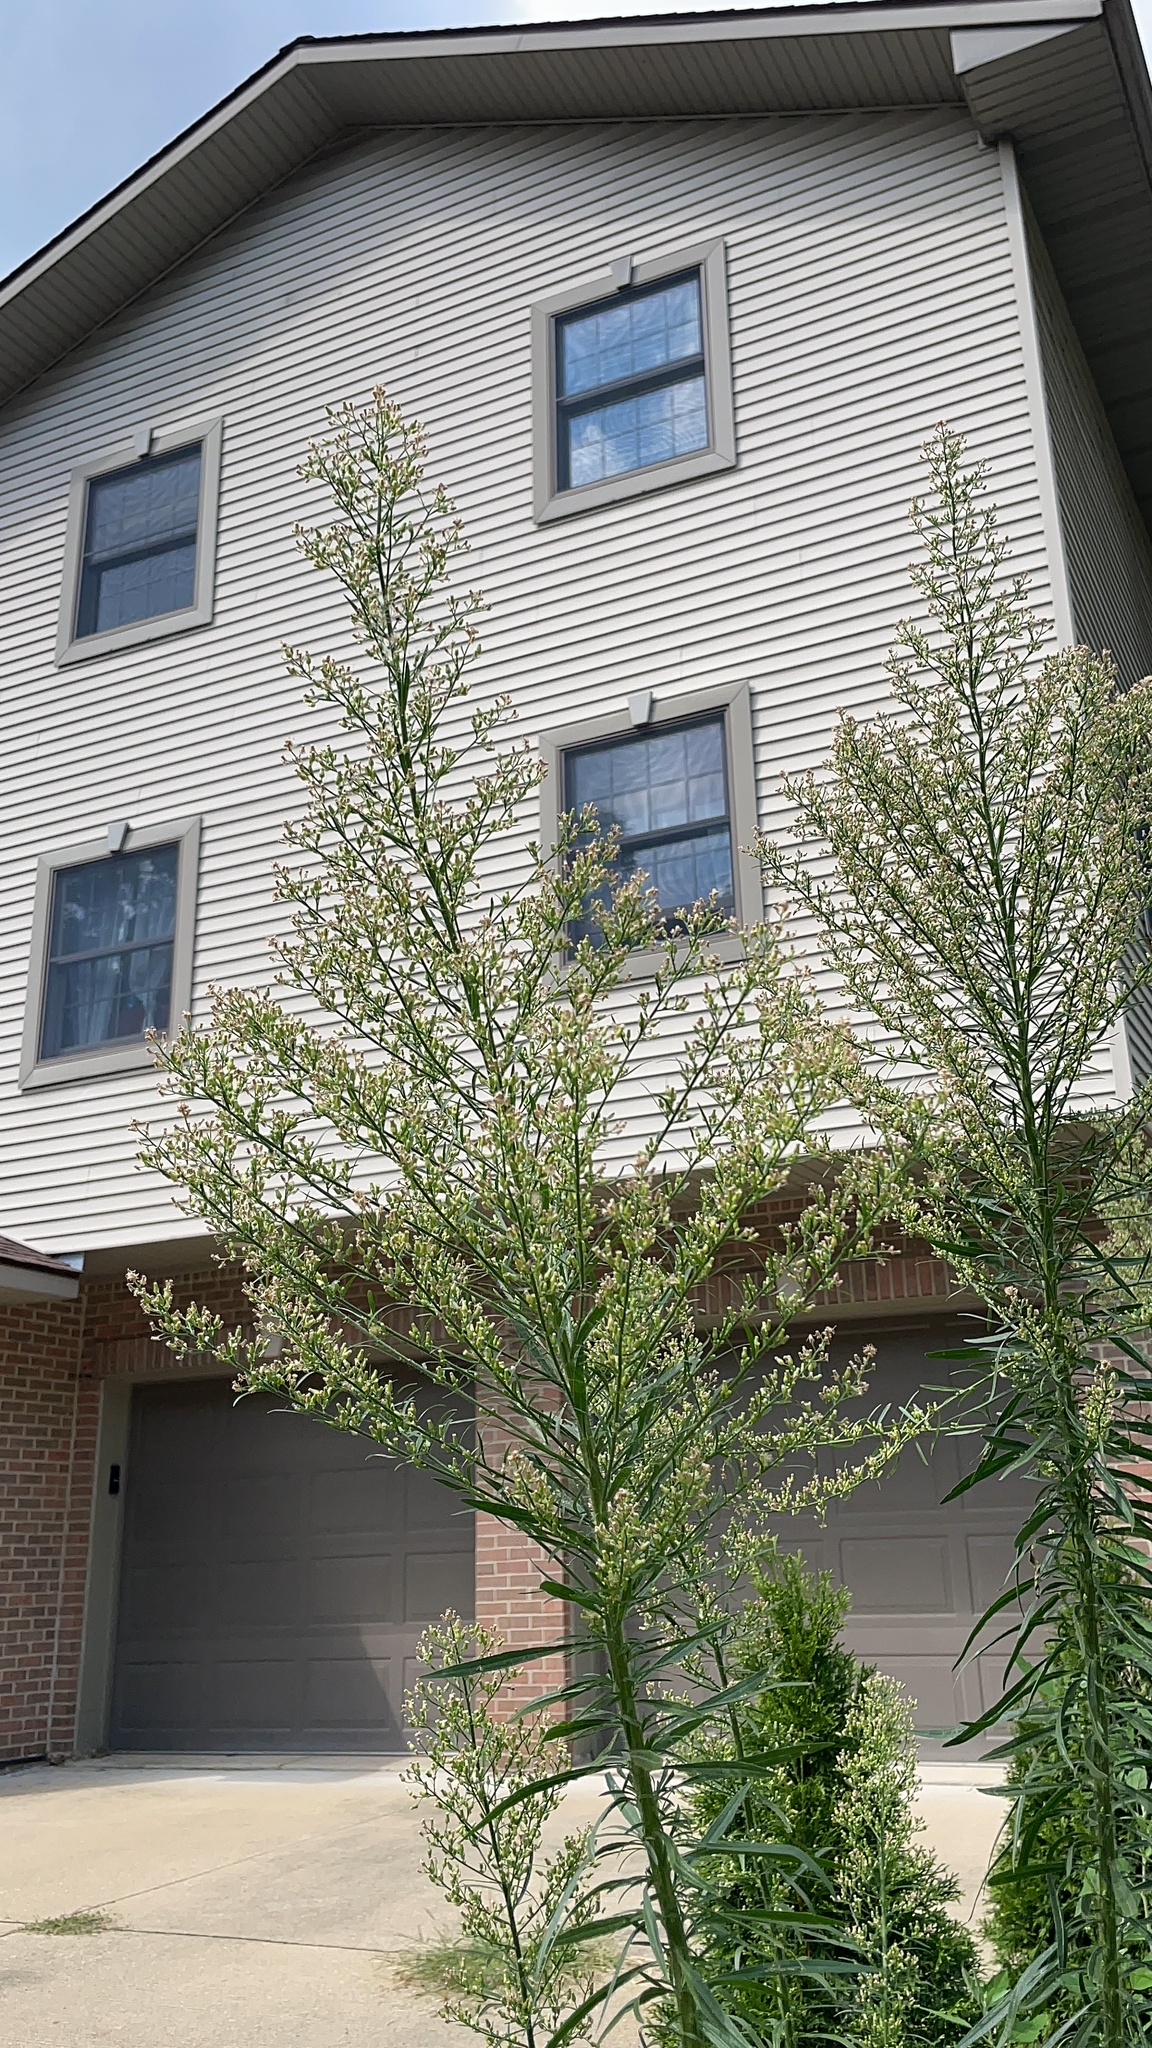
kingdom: Plantae
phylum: Tracheophyta
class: Magnoliopsida
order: Asterales
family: Asteraceae
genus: Erigeron
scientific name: Erigeron canadensis
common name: Canadian fleabane
